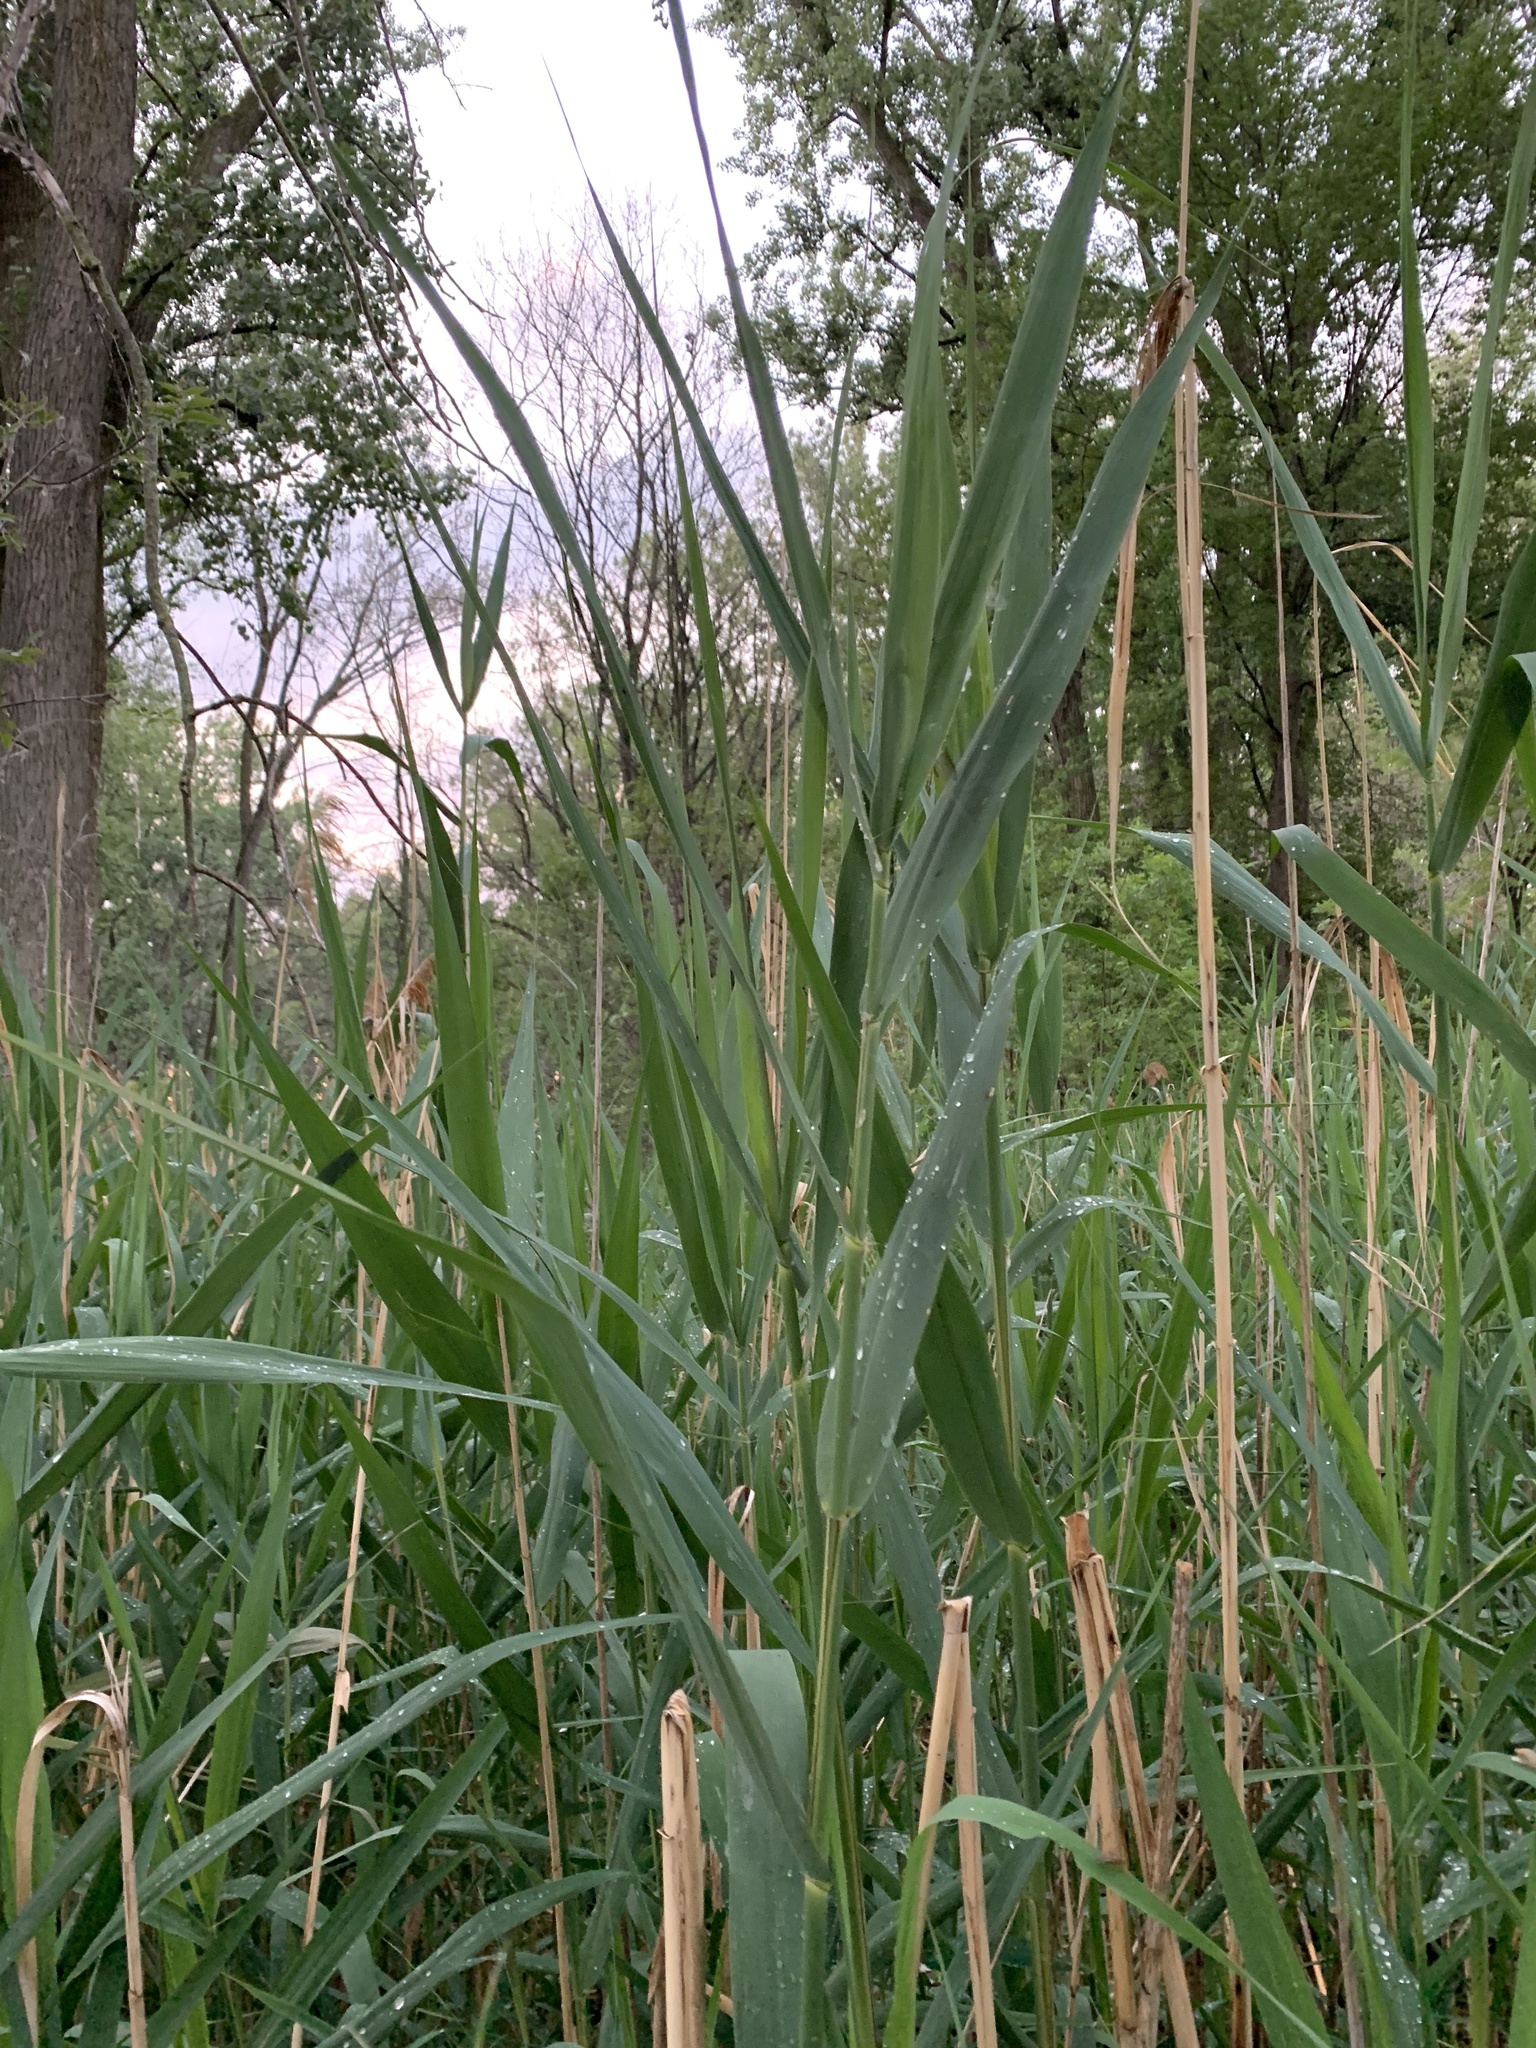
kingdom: Plantae
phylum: Tracheophyta
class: Liliopsida
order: Poales
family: Poaceae
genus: Phragmites
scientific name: Phragmites australis
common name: Common reed
